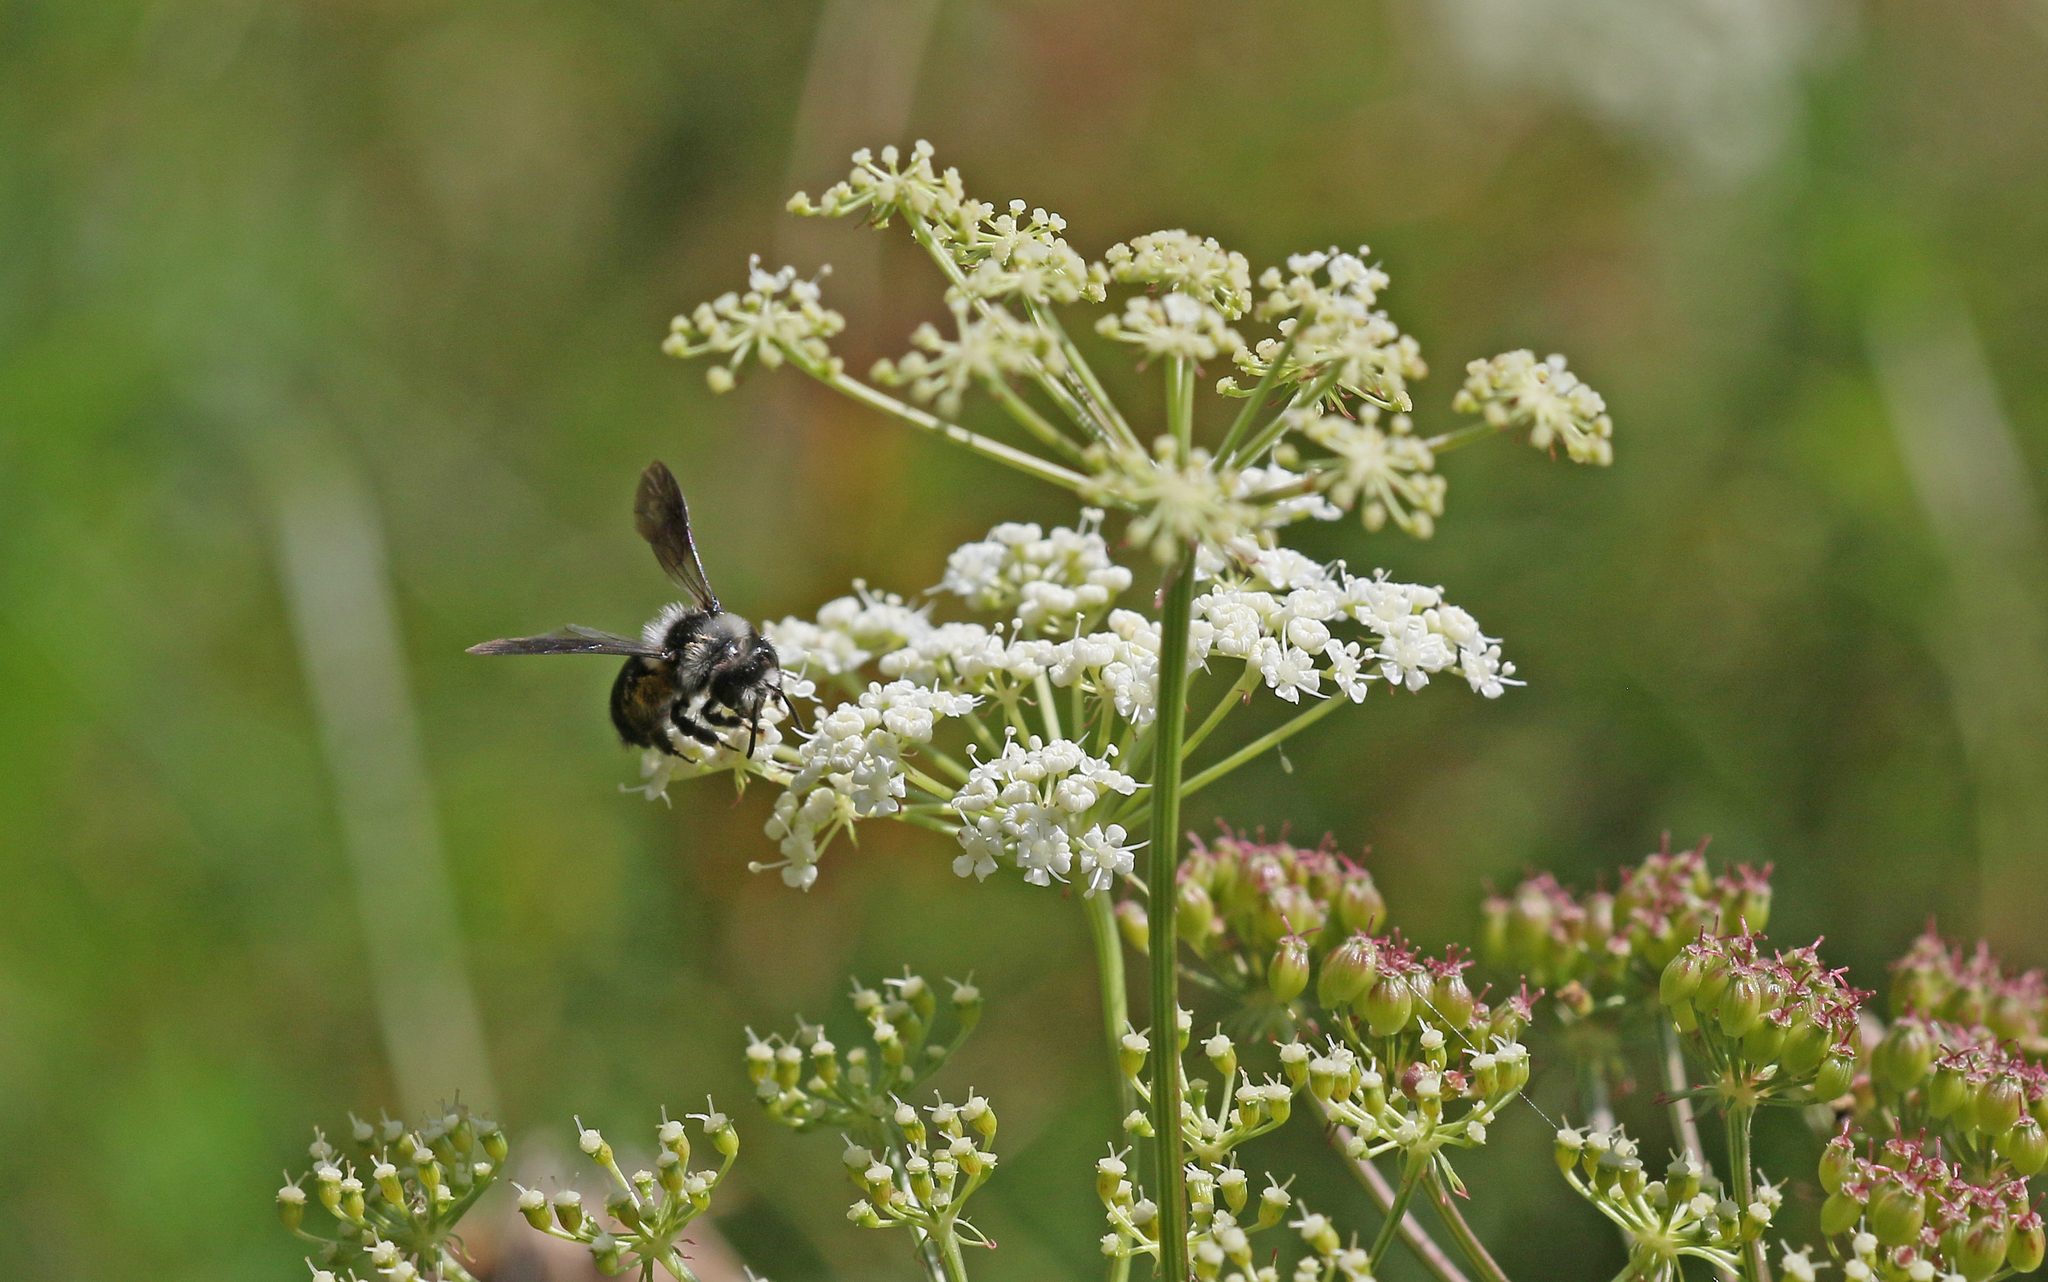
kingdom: Animalia
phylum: Arthropoda
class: Insecta
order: Hymenoptera
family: Andrenidae
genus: Andrena
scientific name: Andrena cineraria
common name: Ashy mining bee
